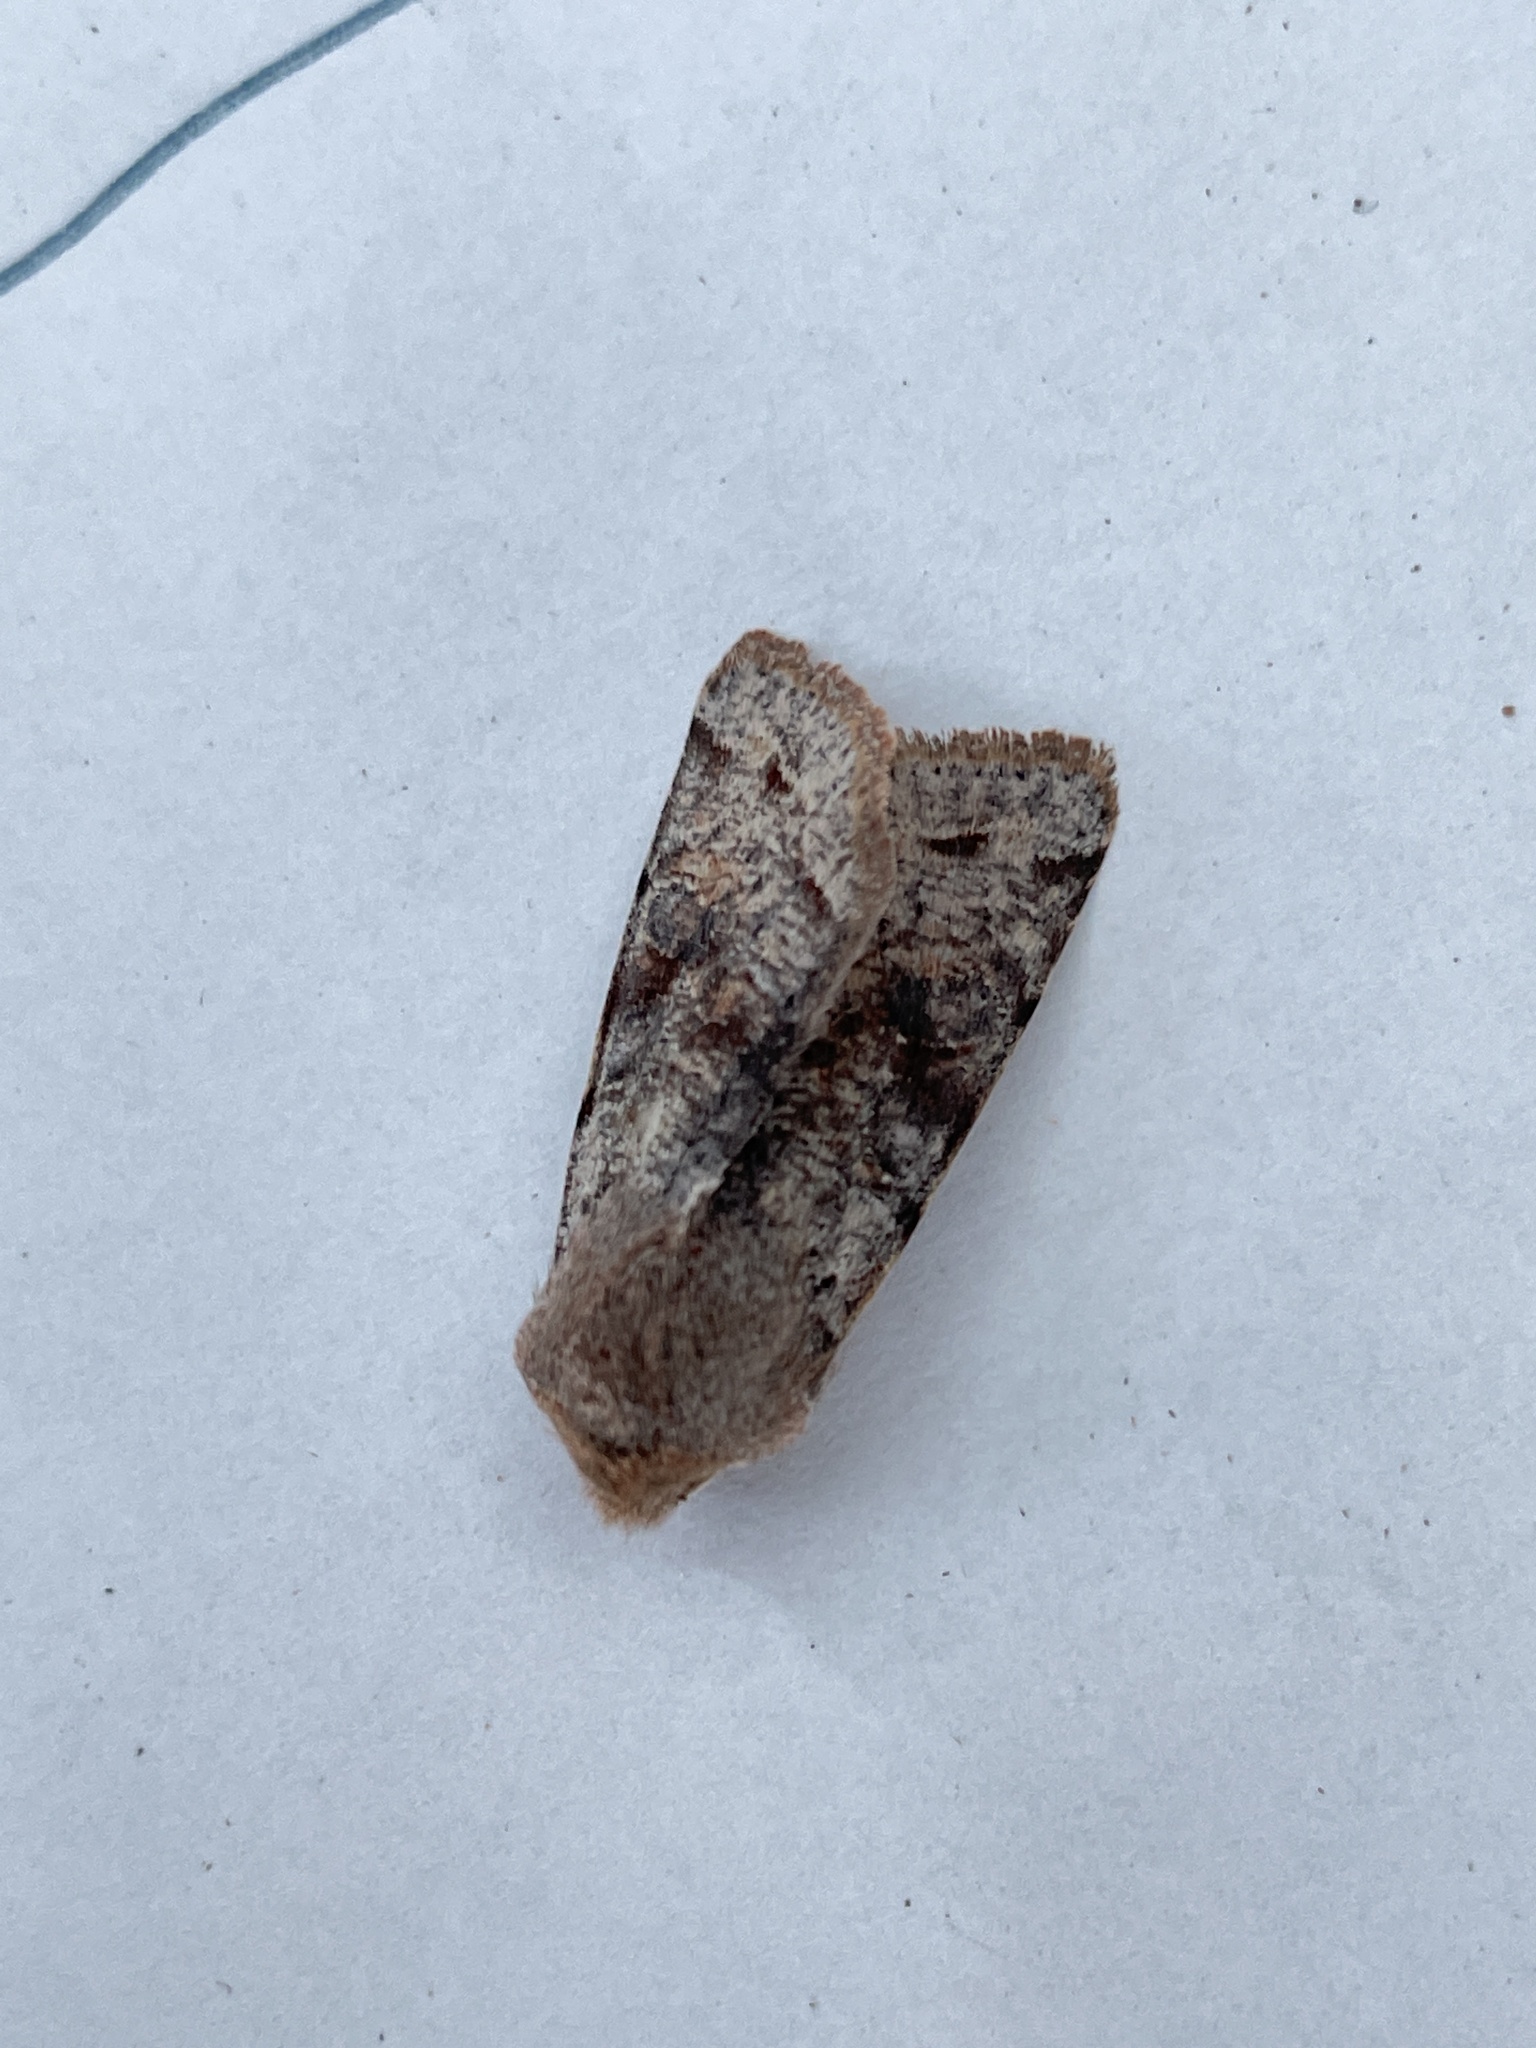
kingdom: Animalia
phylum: Arthropoda
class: Insecta
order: Lepidoptera
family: Noctuidae
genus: Orthosia
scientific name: Orthosia incerta
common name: Clouded drab
